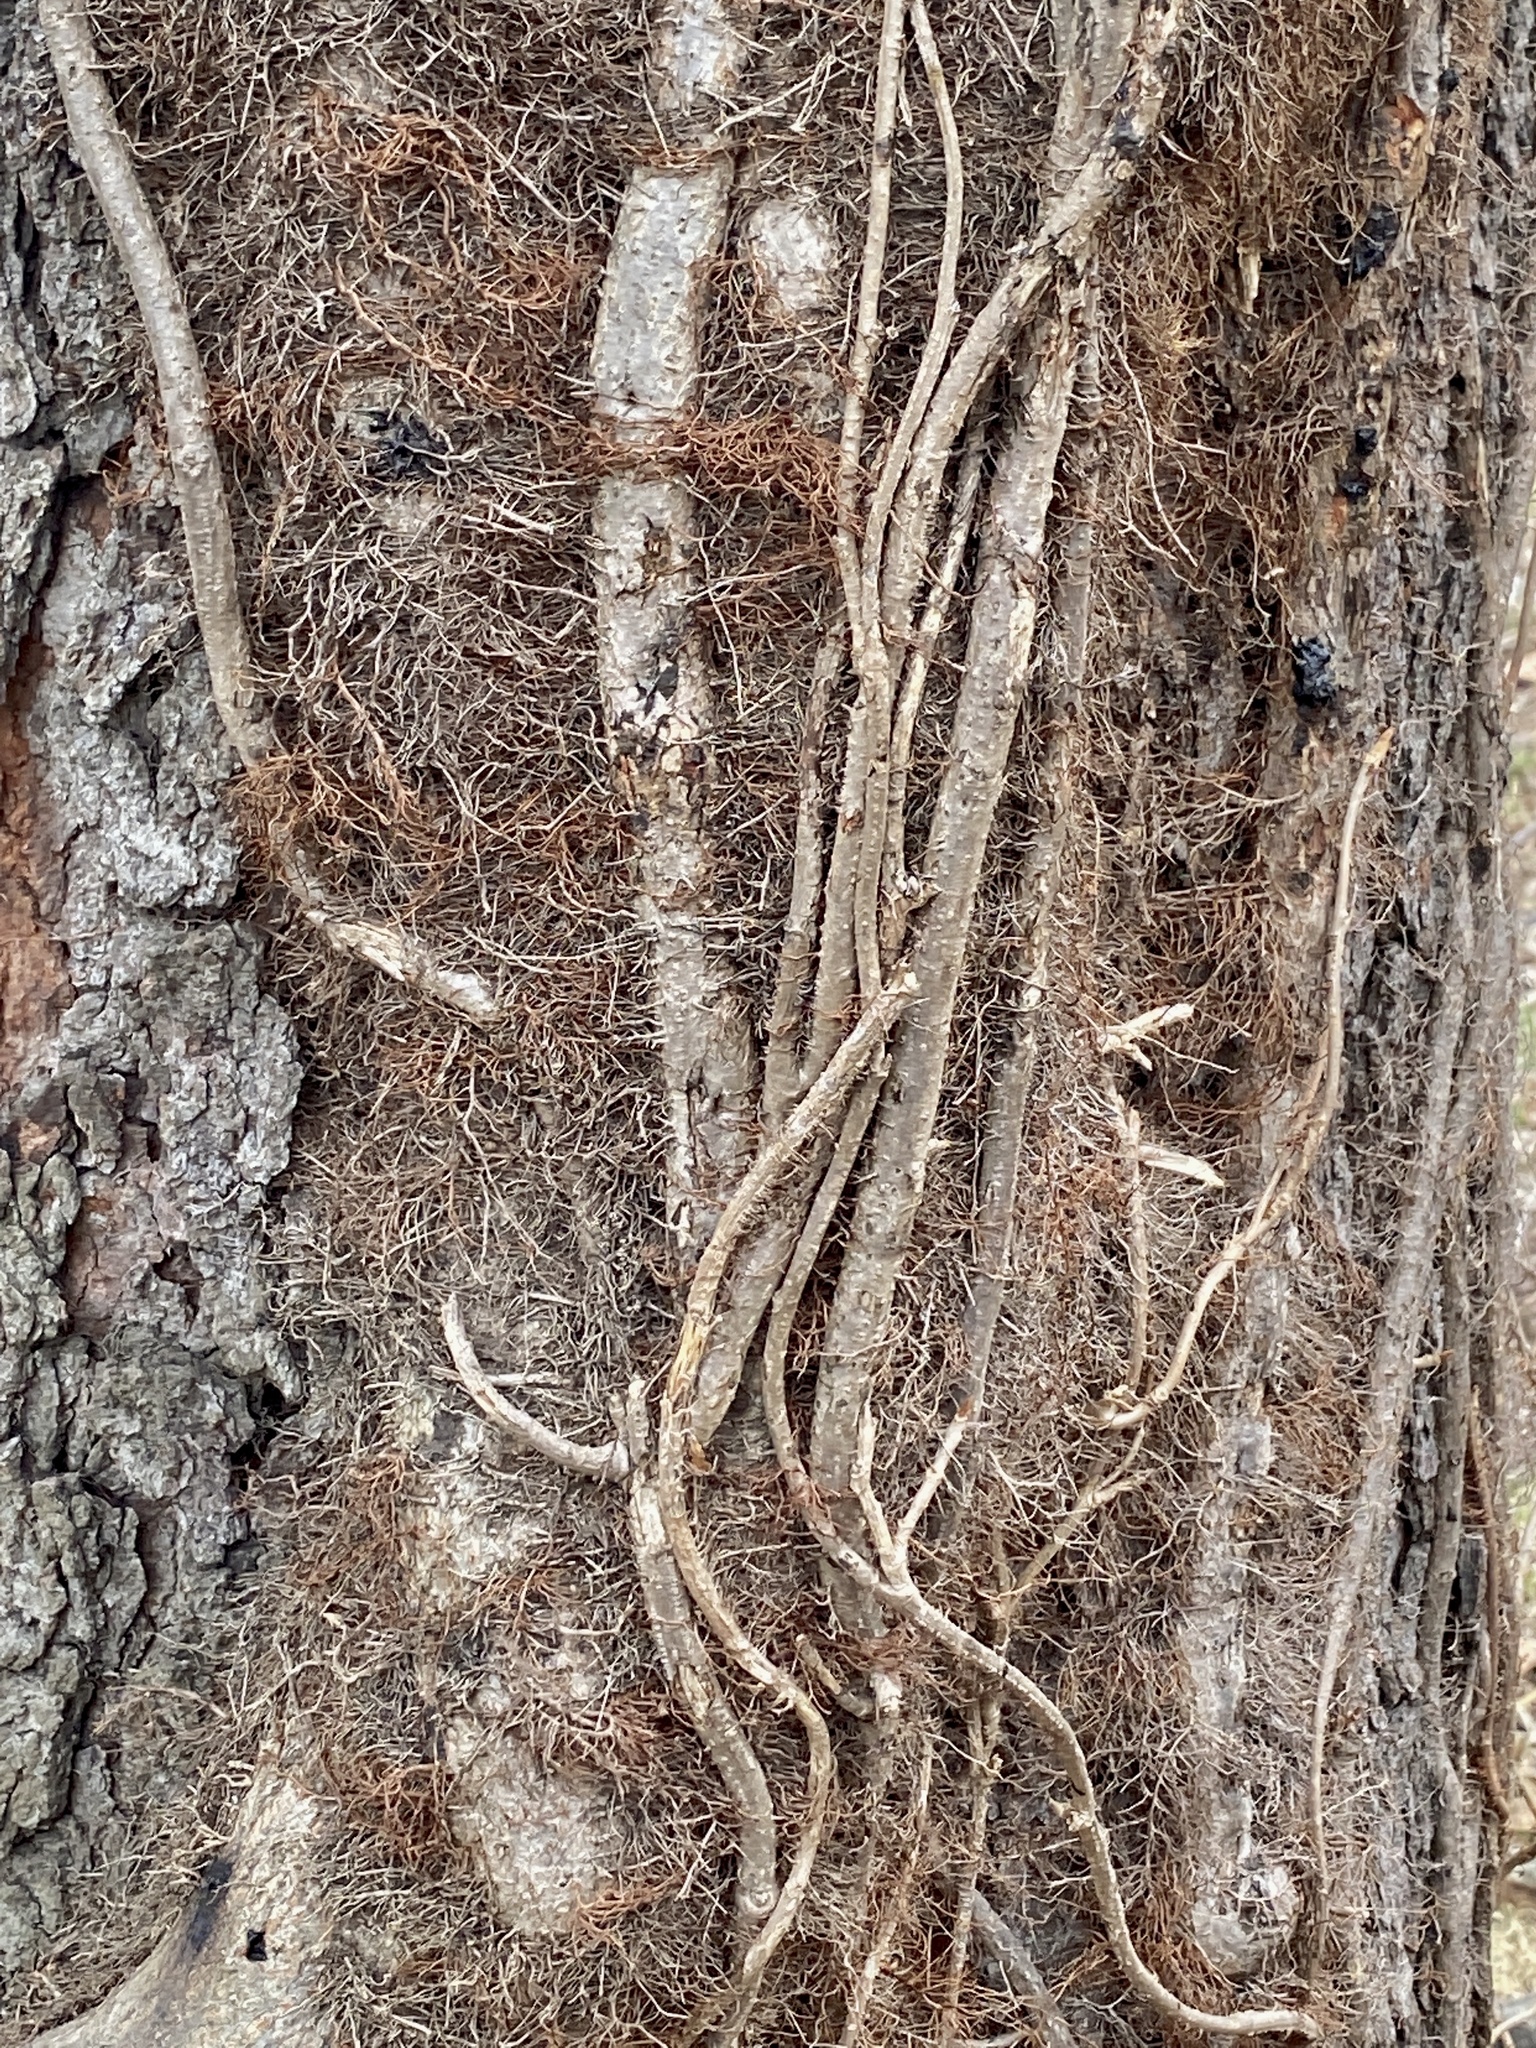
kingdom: Plantae
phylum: Tracheophyta
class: Magnoliopsida
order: Sapindales
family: Anacardiaceae
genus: Toxicodendron
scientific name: Toxicodendron radicans
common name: Poison ivy
